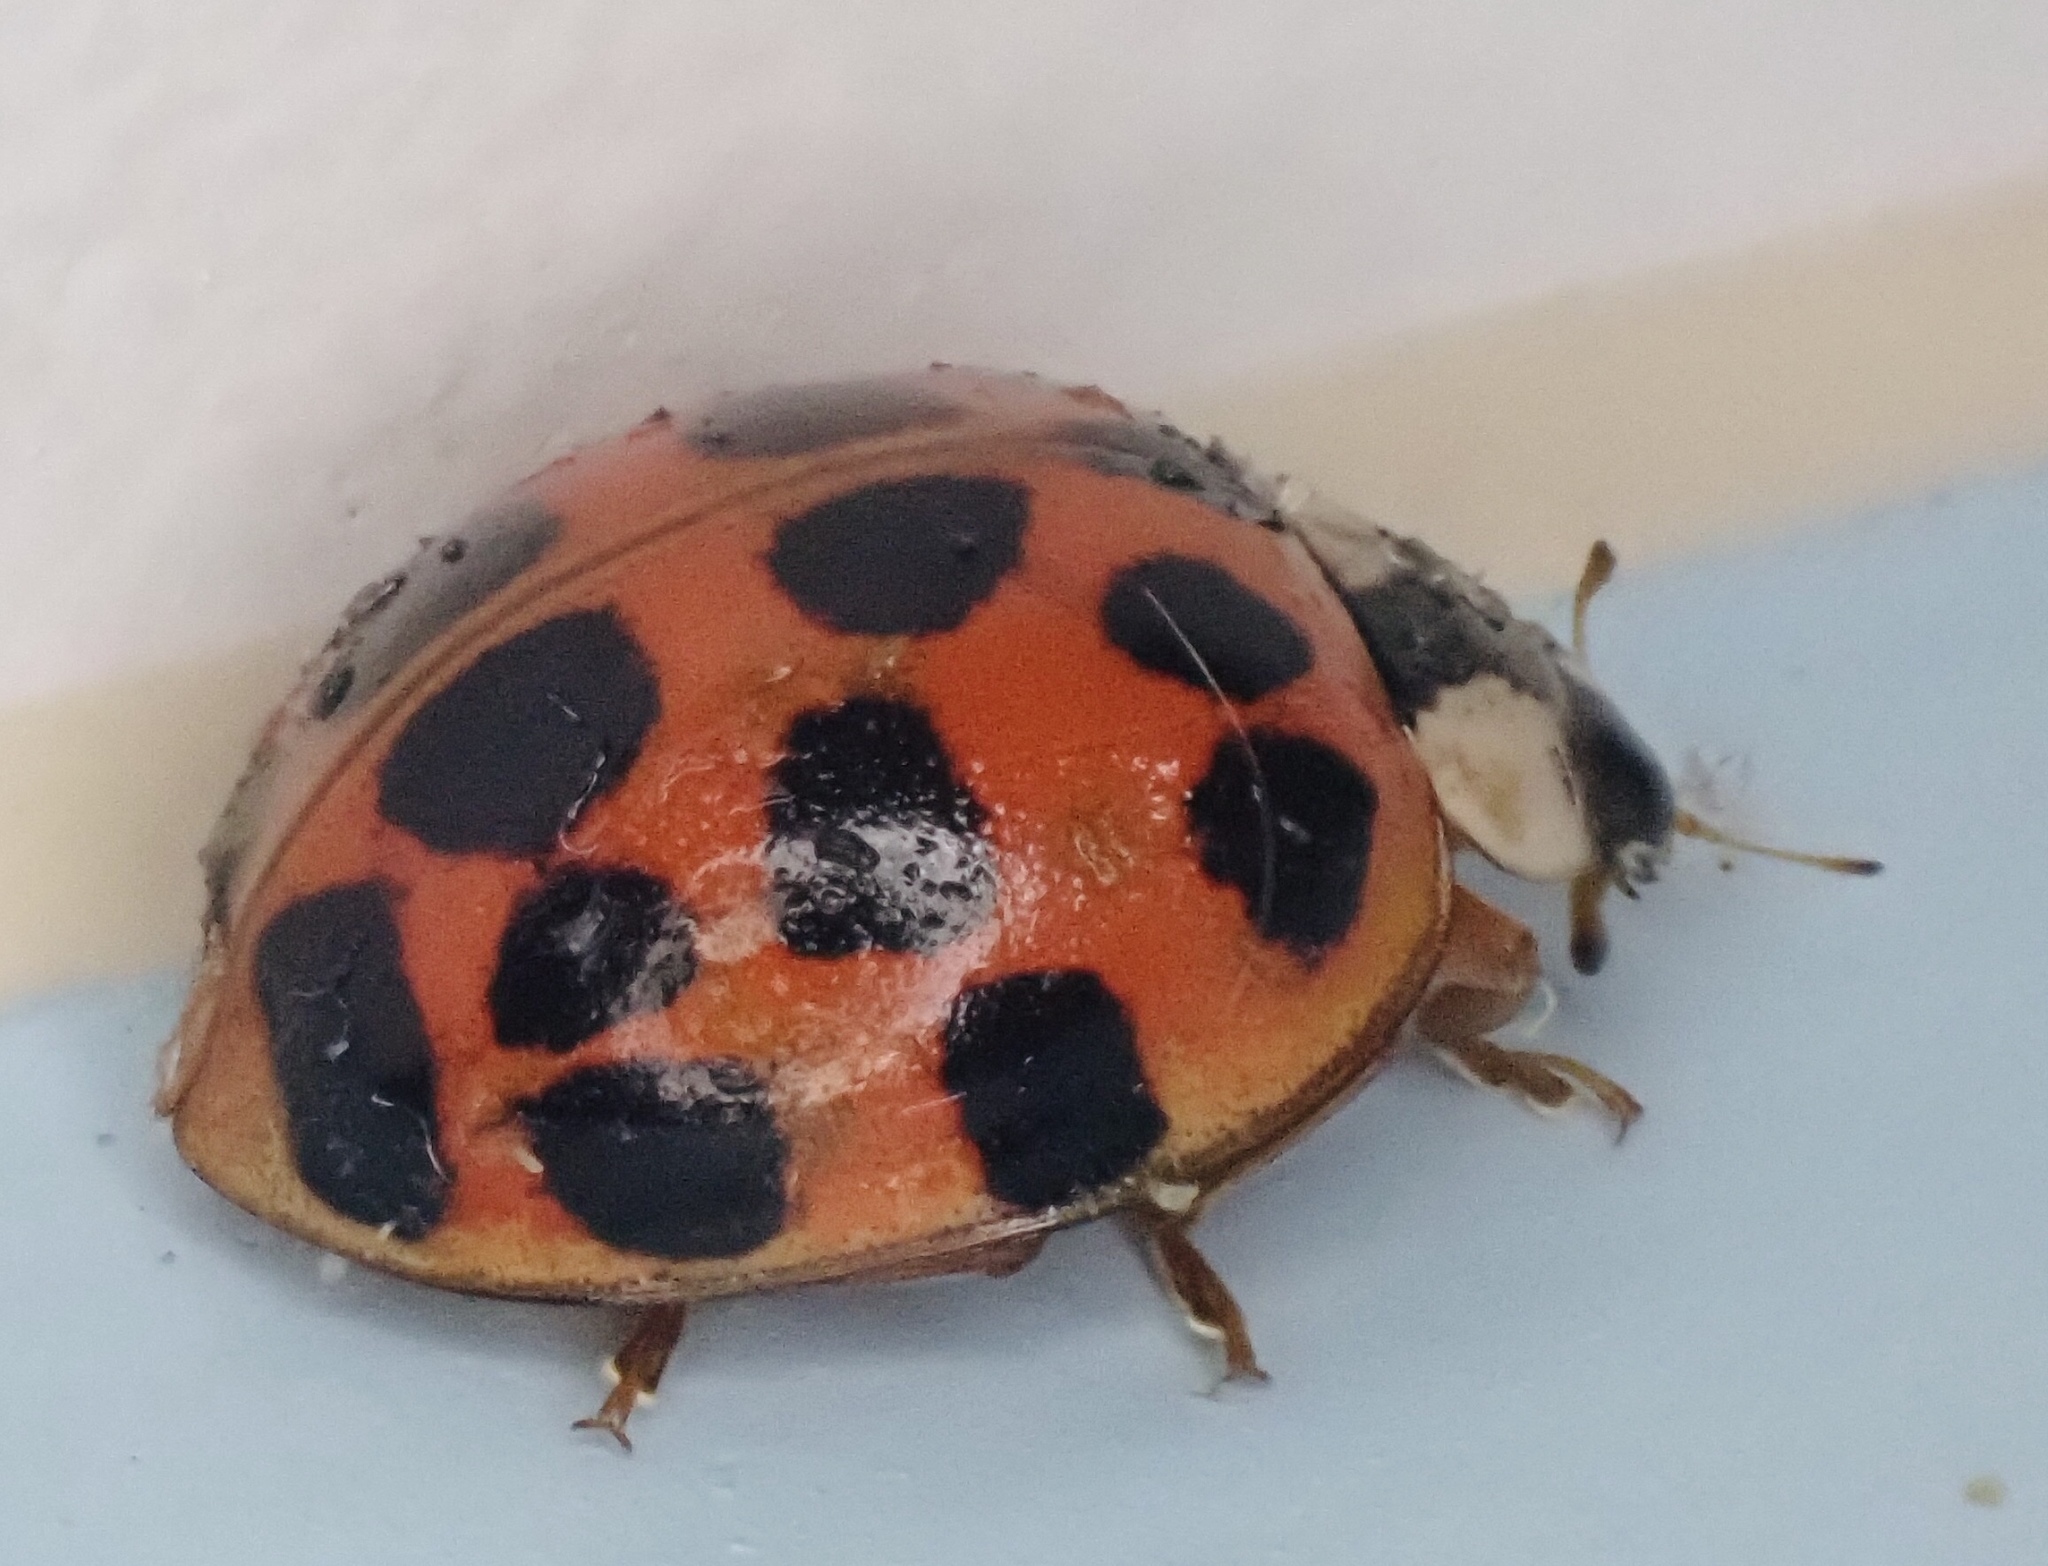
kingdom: Animalia
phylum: Arthropoda
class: Insecta
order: Coleoptera
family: Coccinellidae
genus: Harmonia
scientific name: Harmonia axyridis
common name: Harlequin ladybird
